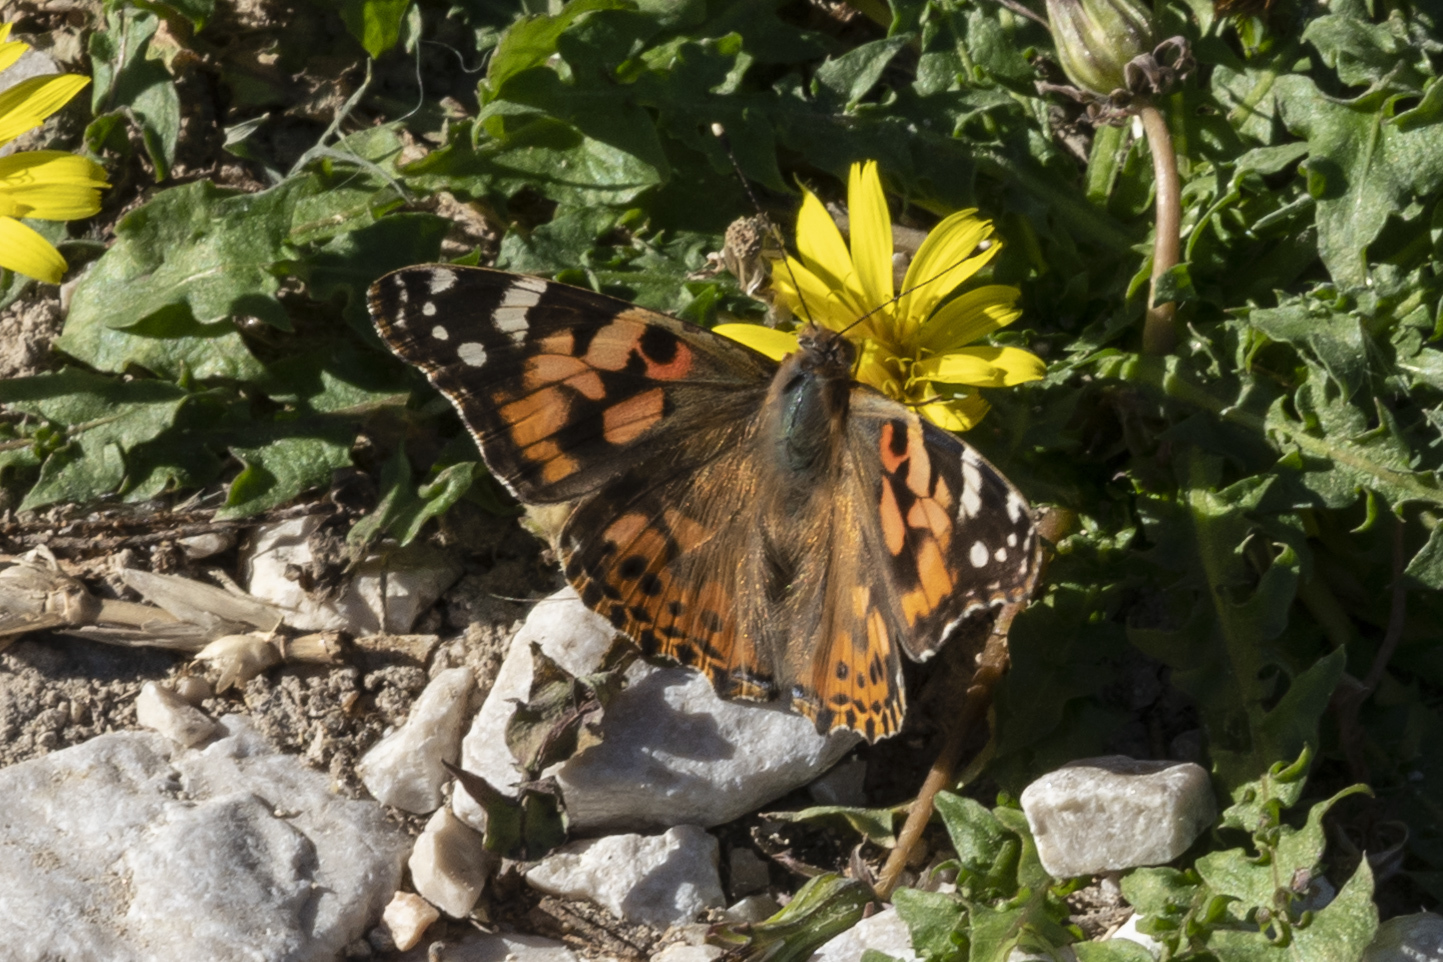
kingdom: Animalia
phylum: Arthropoda
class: Insecta
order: Lepidoptera
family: Nymphalidae
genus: Vanessa
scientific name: Vanessa cardui
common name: Painted lady
